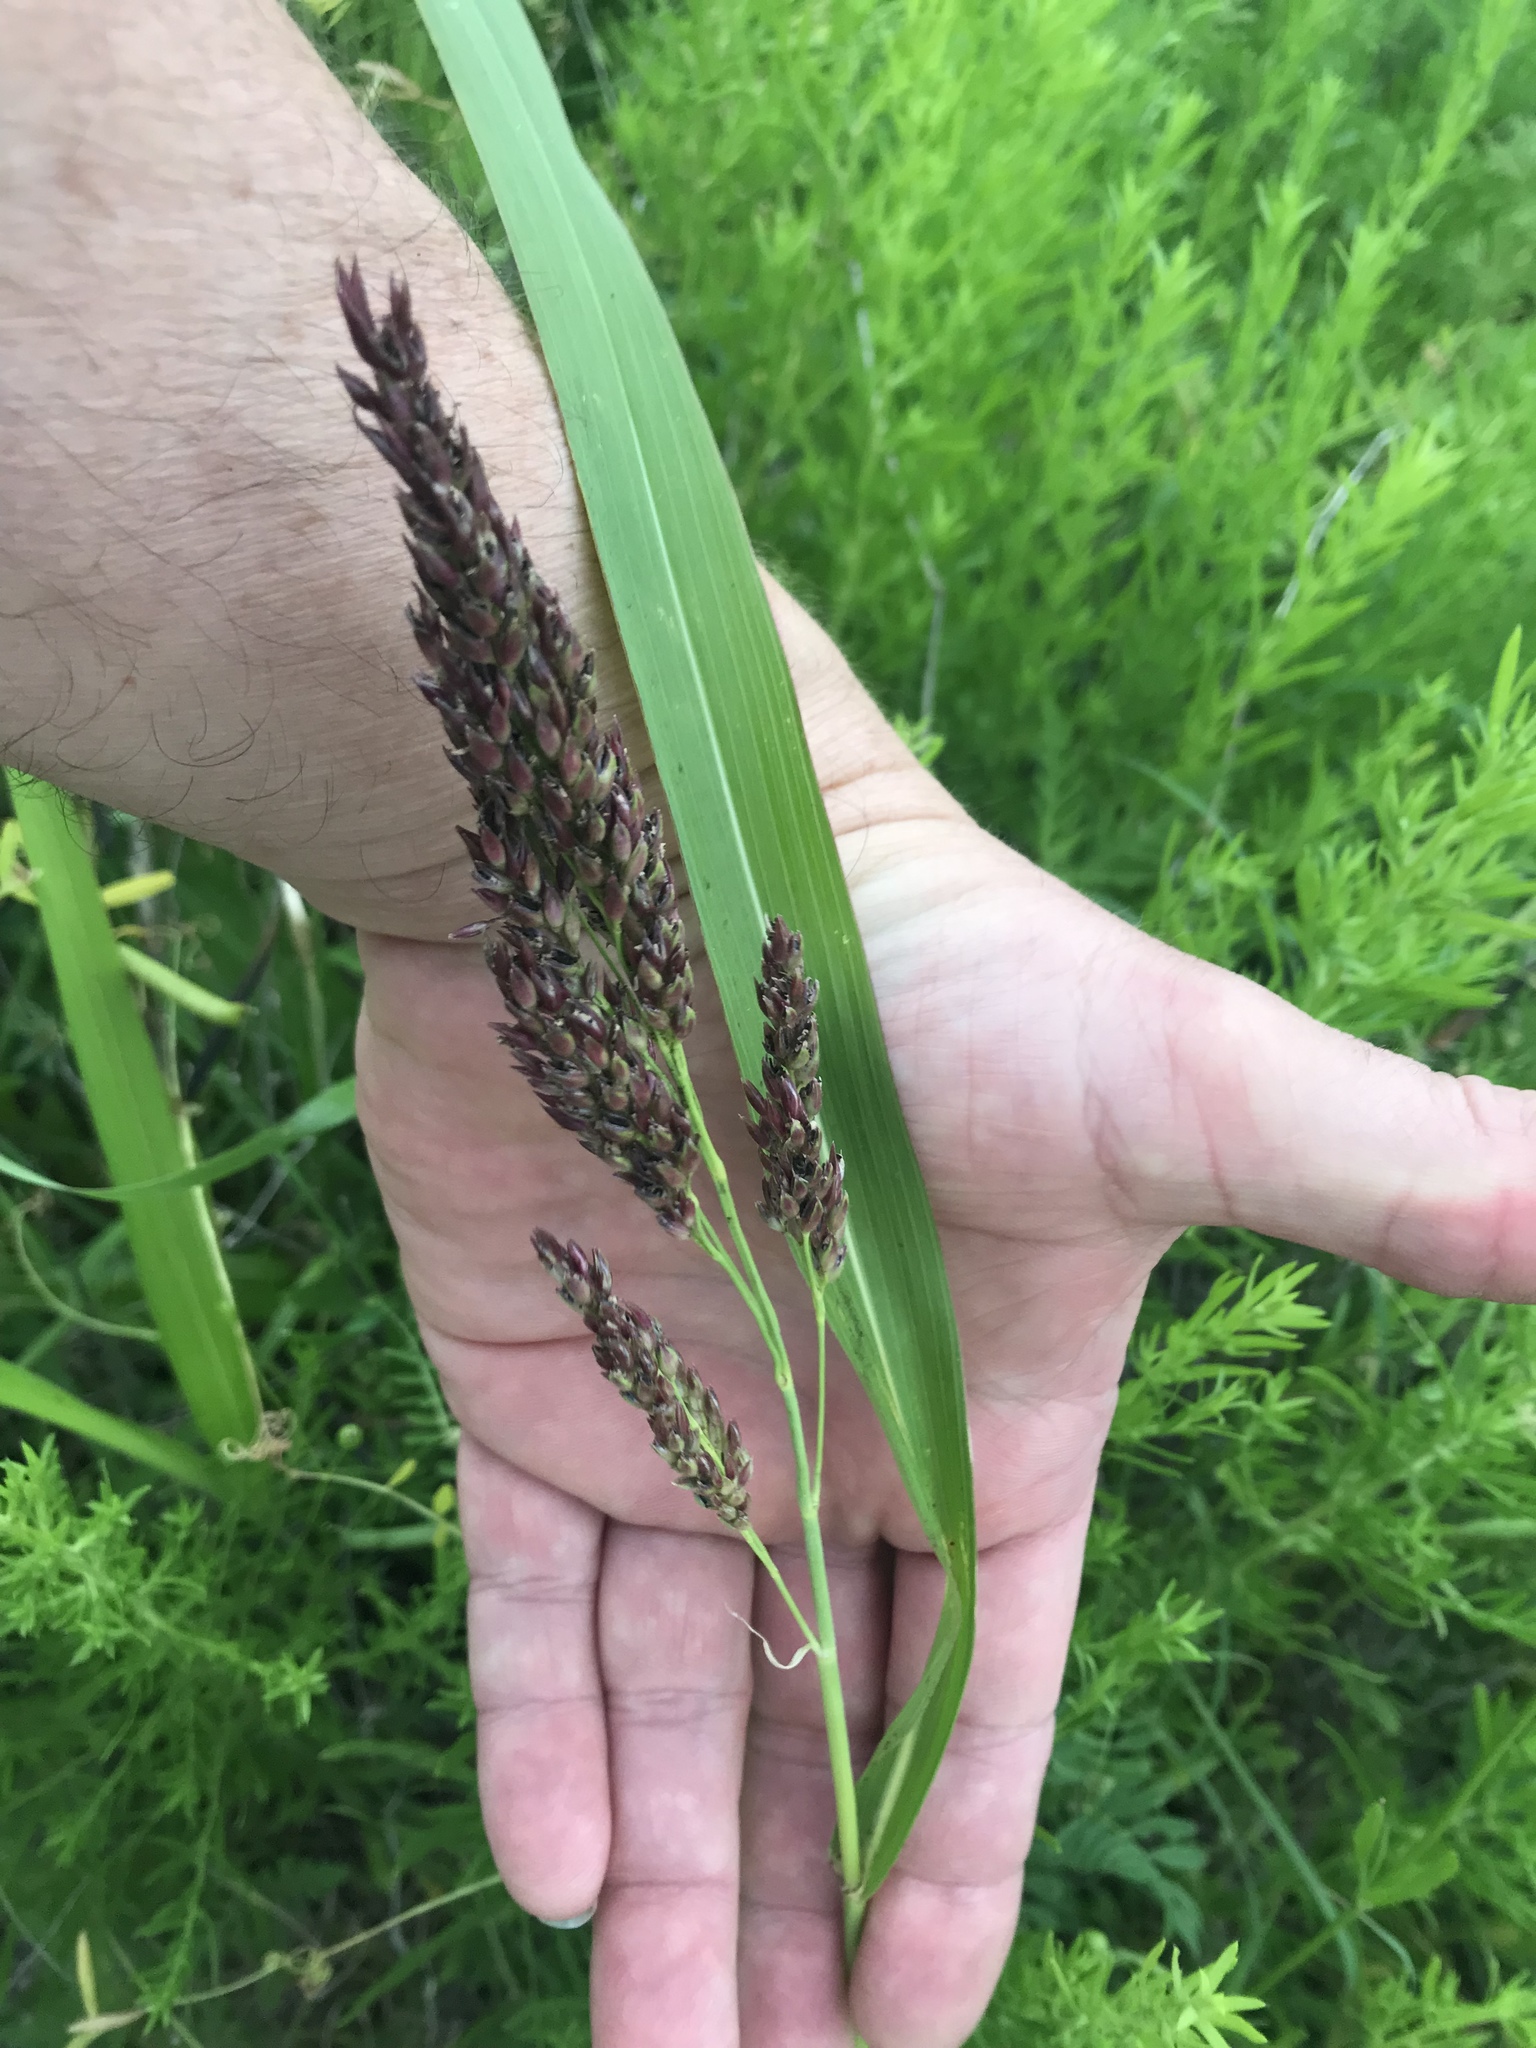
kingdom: Plantae
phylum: Tracheophyta
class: Liliopsida
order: Poales
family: Poaceae
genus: Sorghum
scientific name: Sorghum halepense
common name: Johnson-grass
